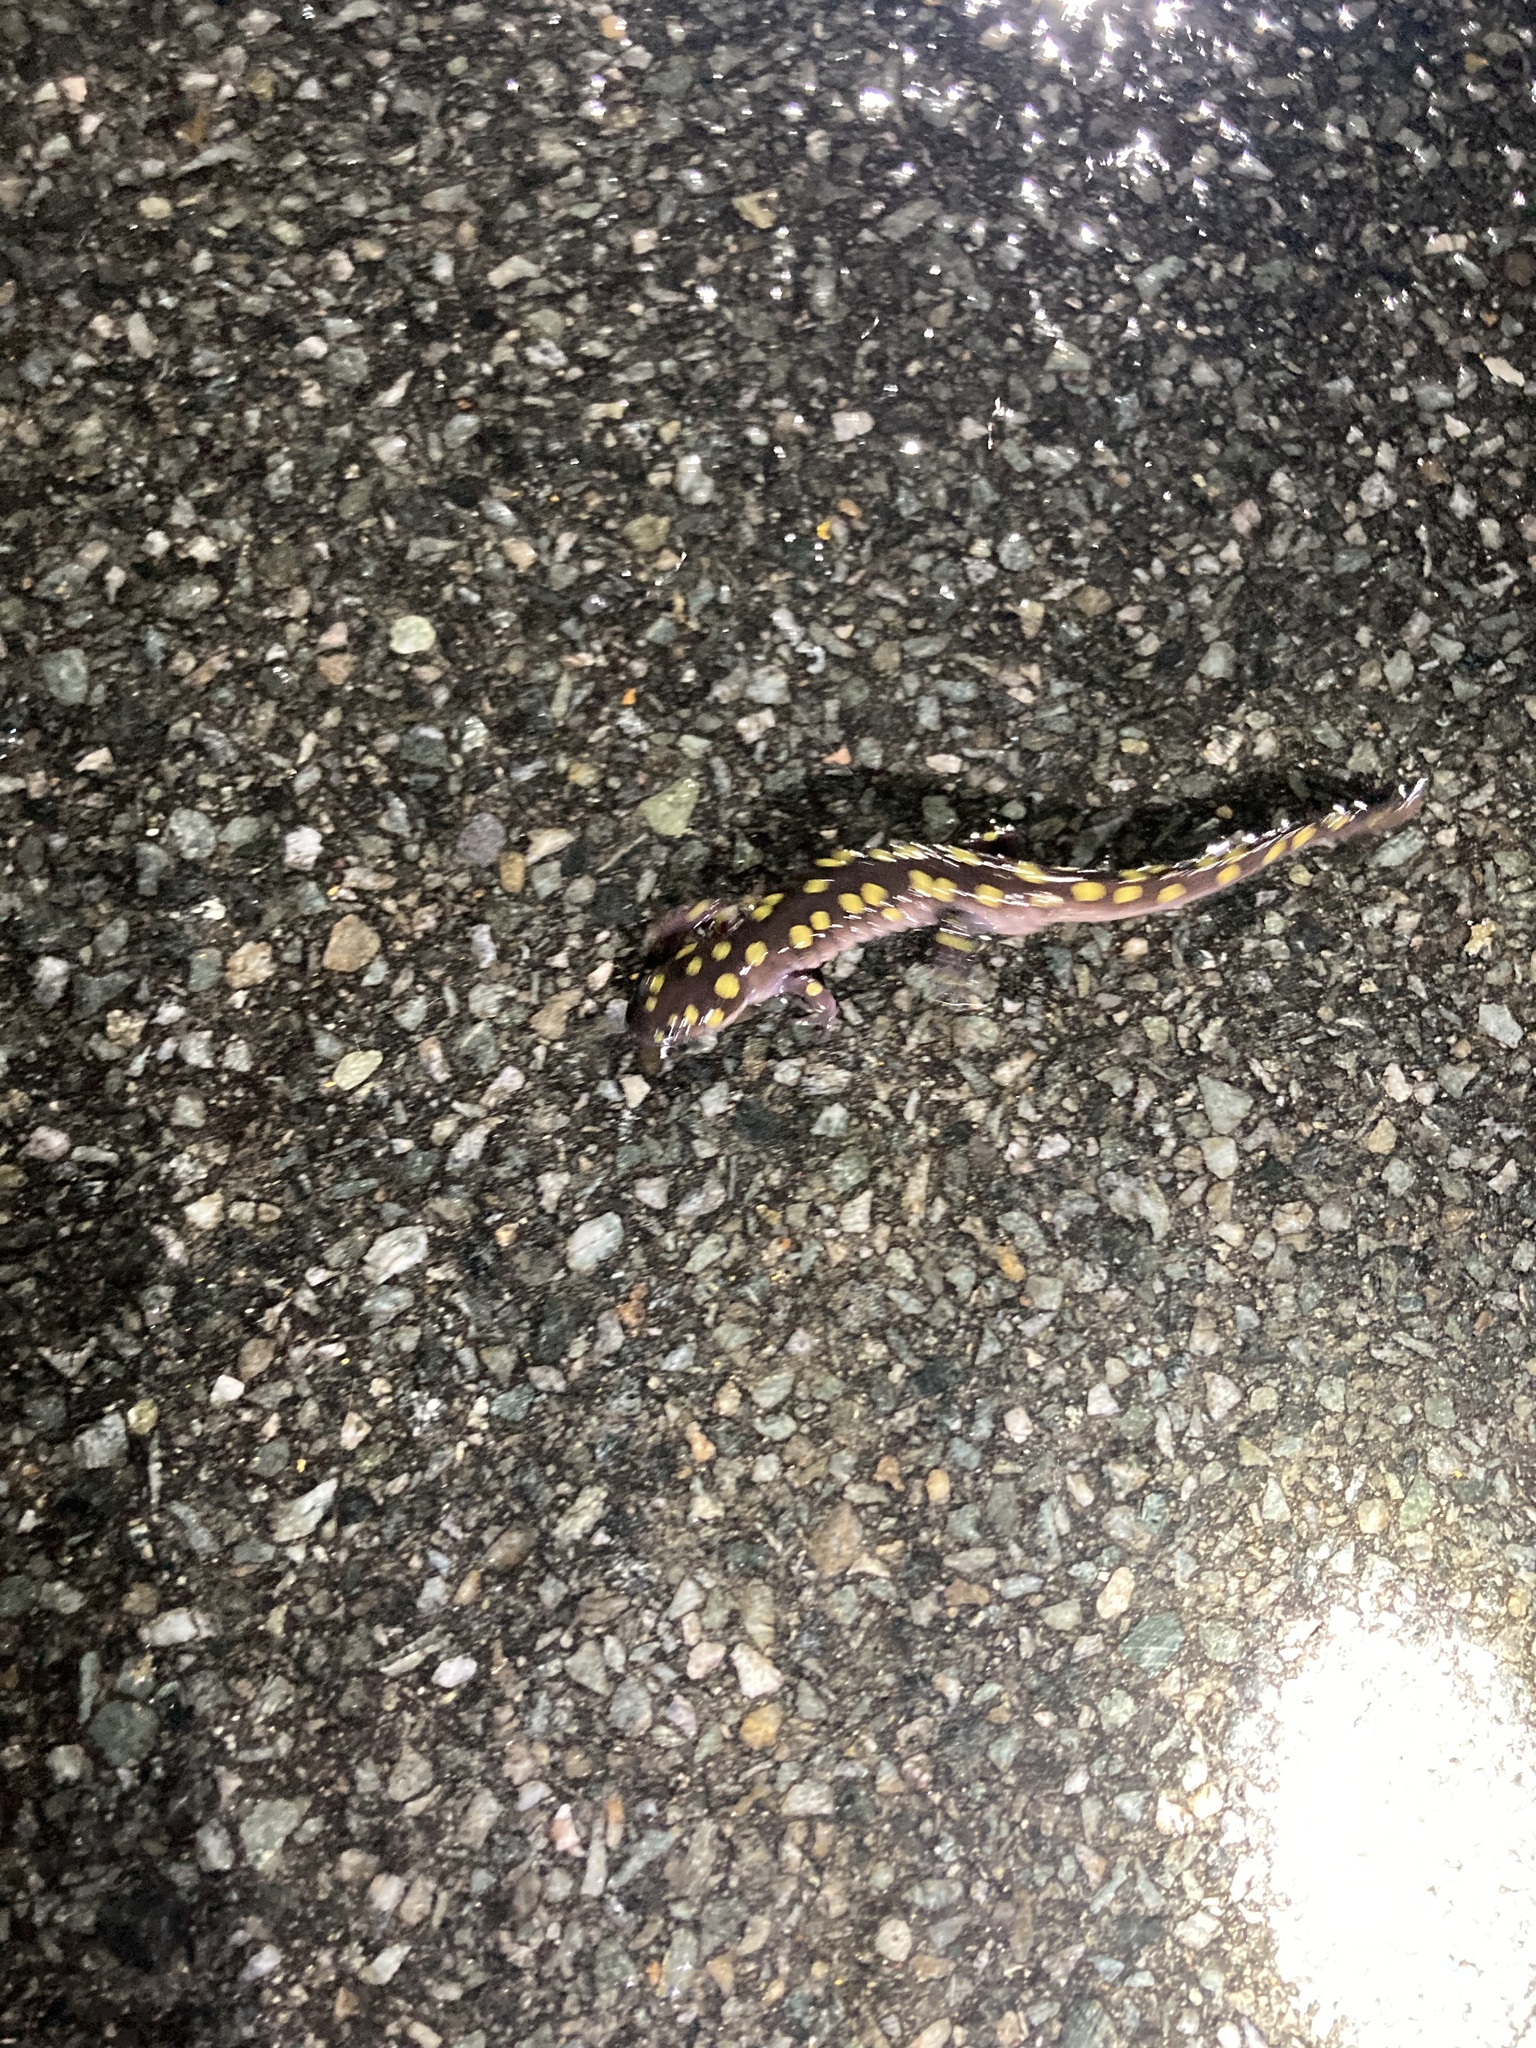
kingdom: Animalia
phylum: Chordata
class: Amphibia
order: Caudata
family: Ambystomatidae
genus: Ambystoma
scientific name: Ambystoma maculatum
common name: Spotted salamander
